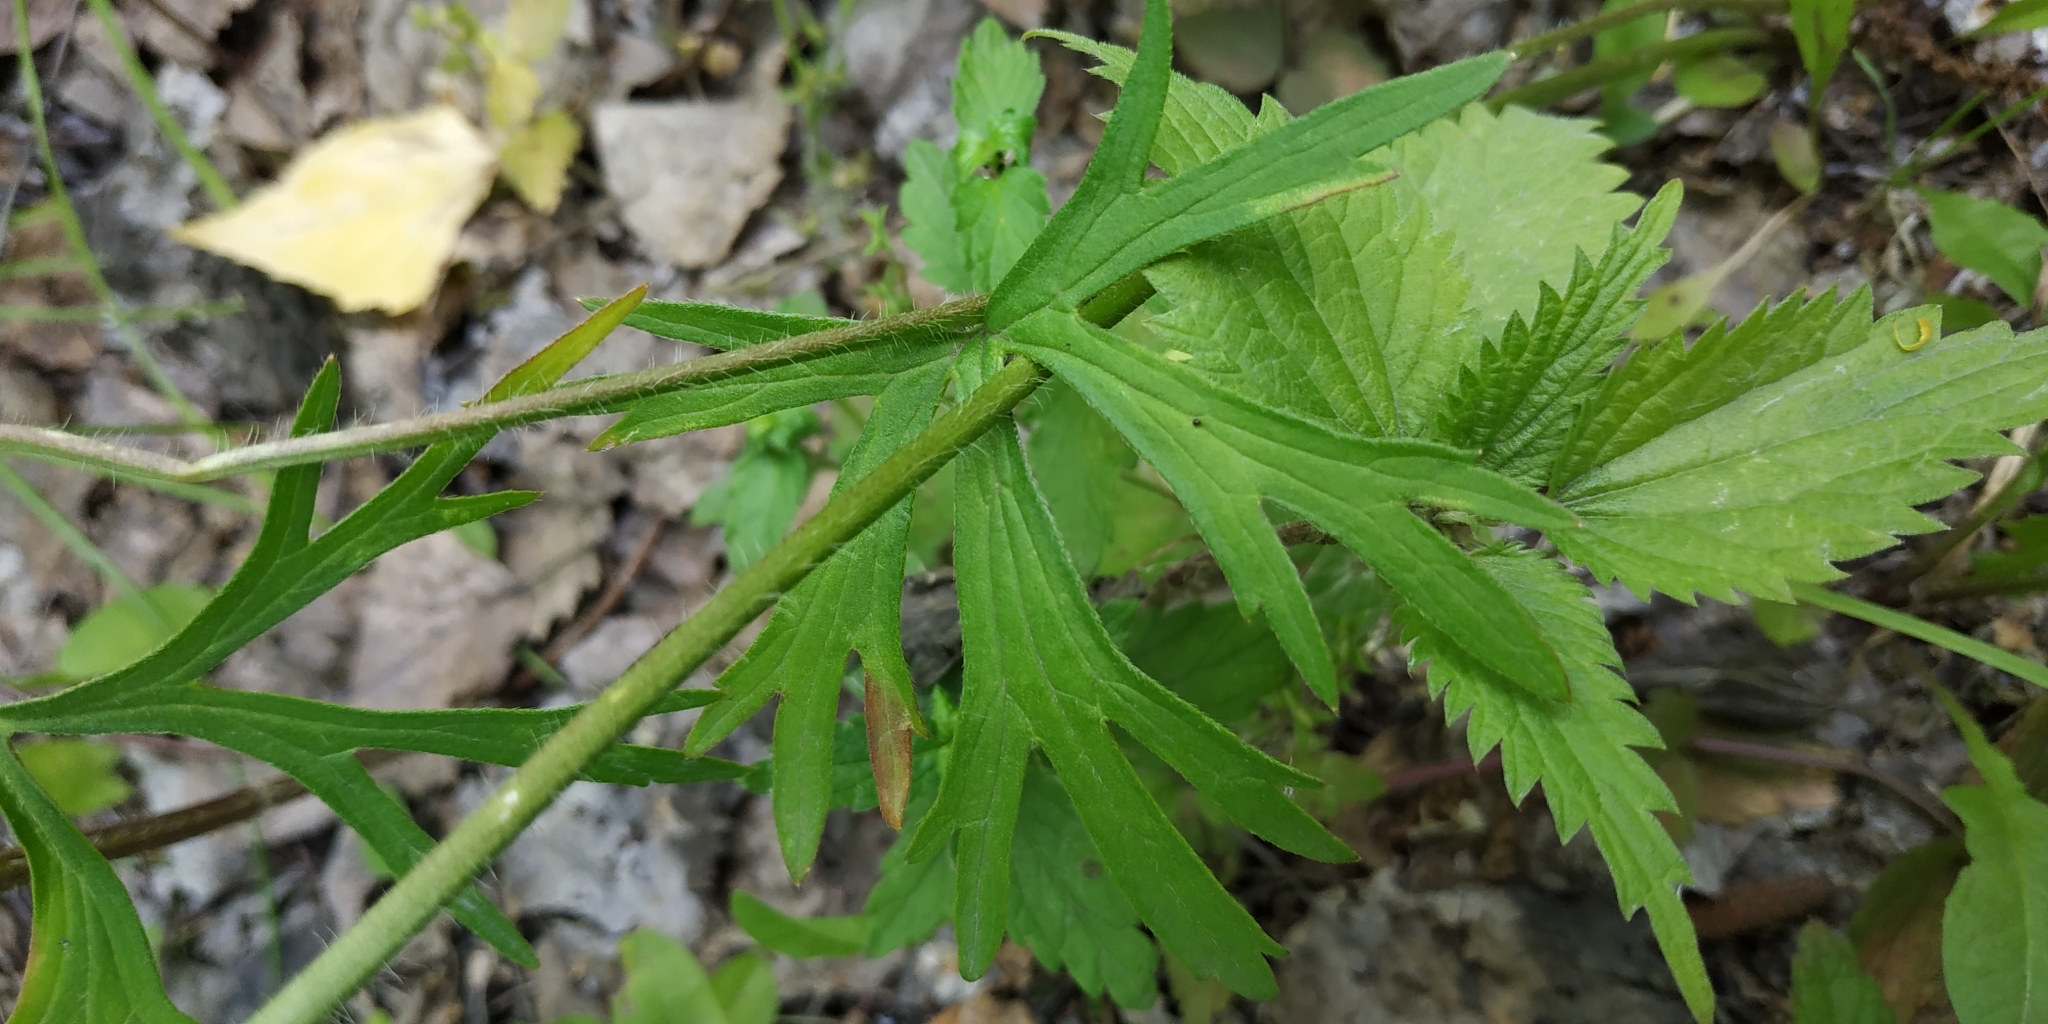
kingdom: Plantae
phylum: Tracheophyta
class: Magnoliopsida
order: Ranunculales
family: Ranunculaceae
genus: Ranunculus
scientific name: Ranunculus polyanthemos
